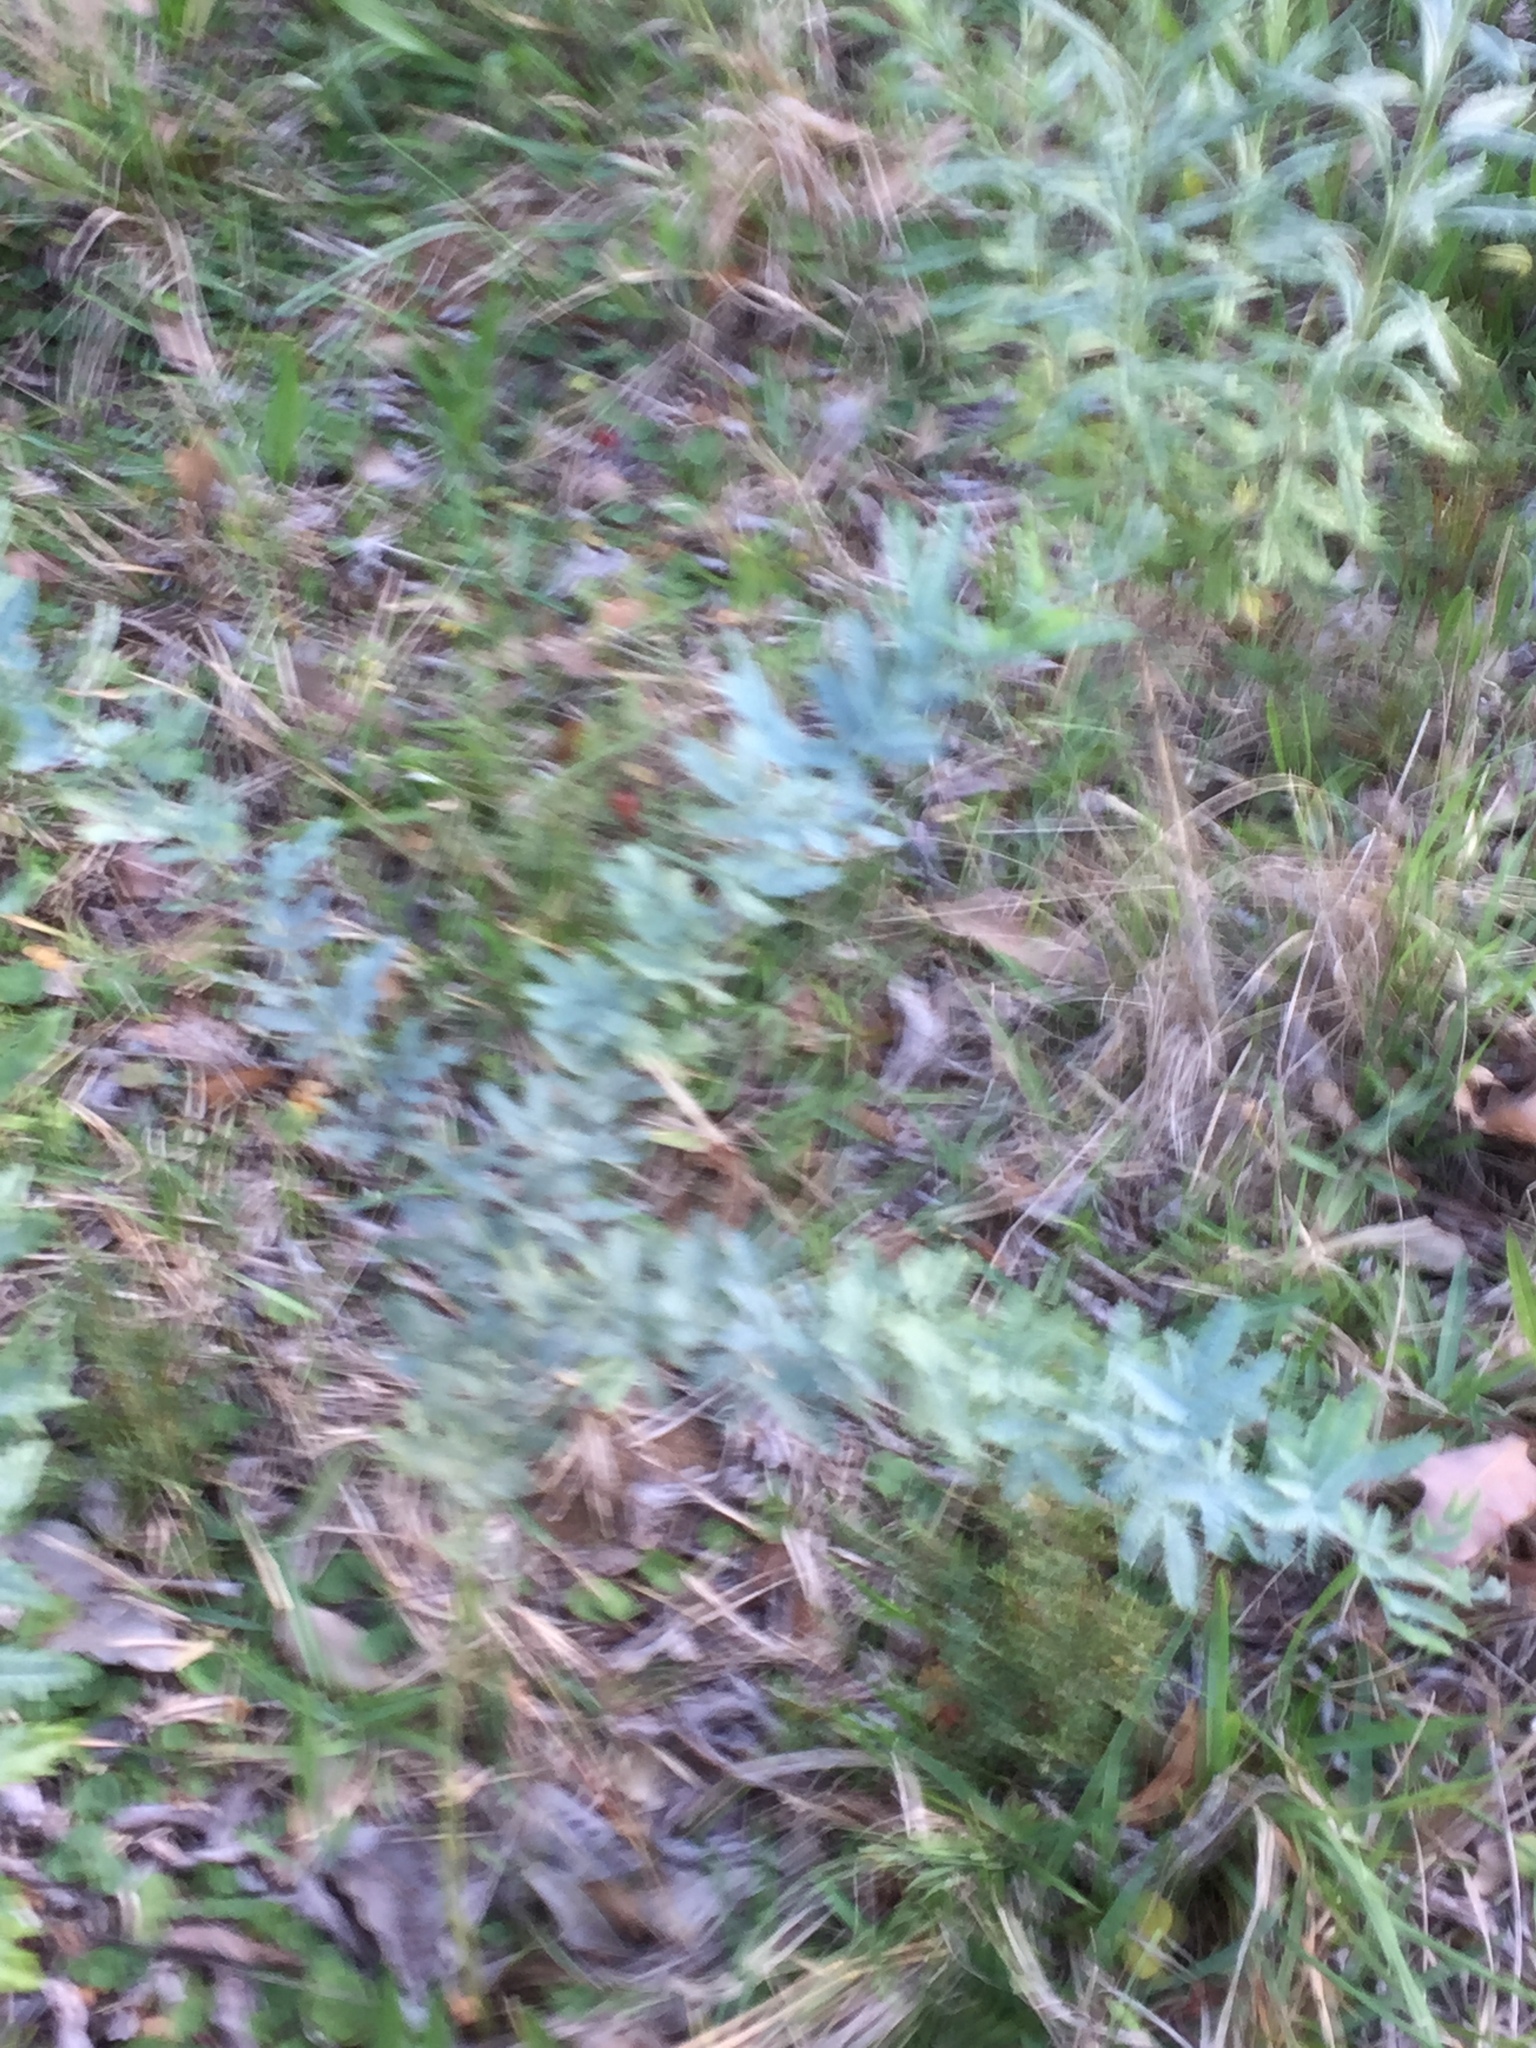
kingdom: Plantae
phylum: Tracheophyta
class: Magnoliopsida
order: Fabales
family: Fabaceae
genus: Acacia
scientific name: Acacia baileyana
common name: Cootamundra wattle
